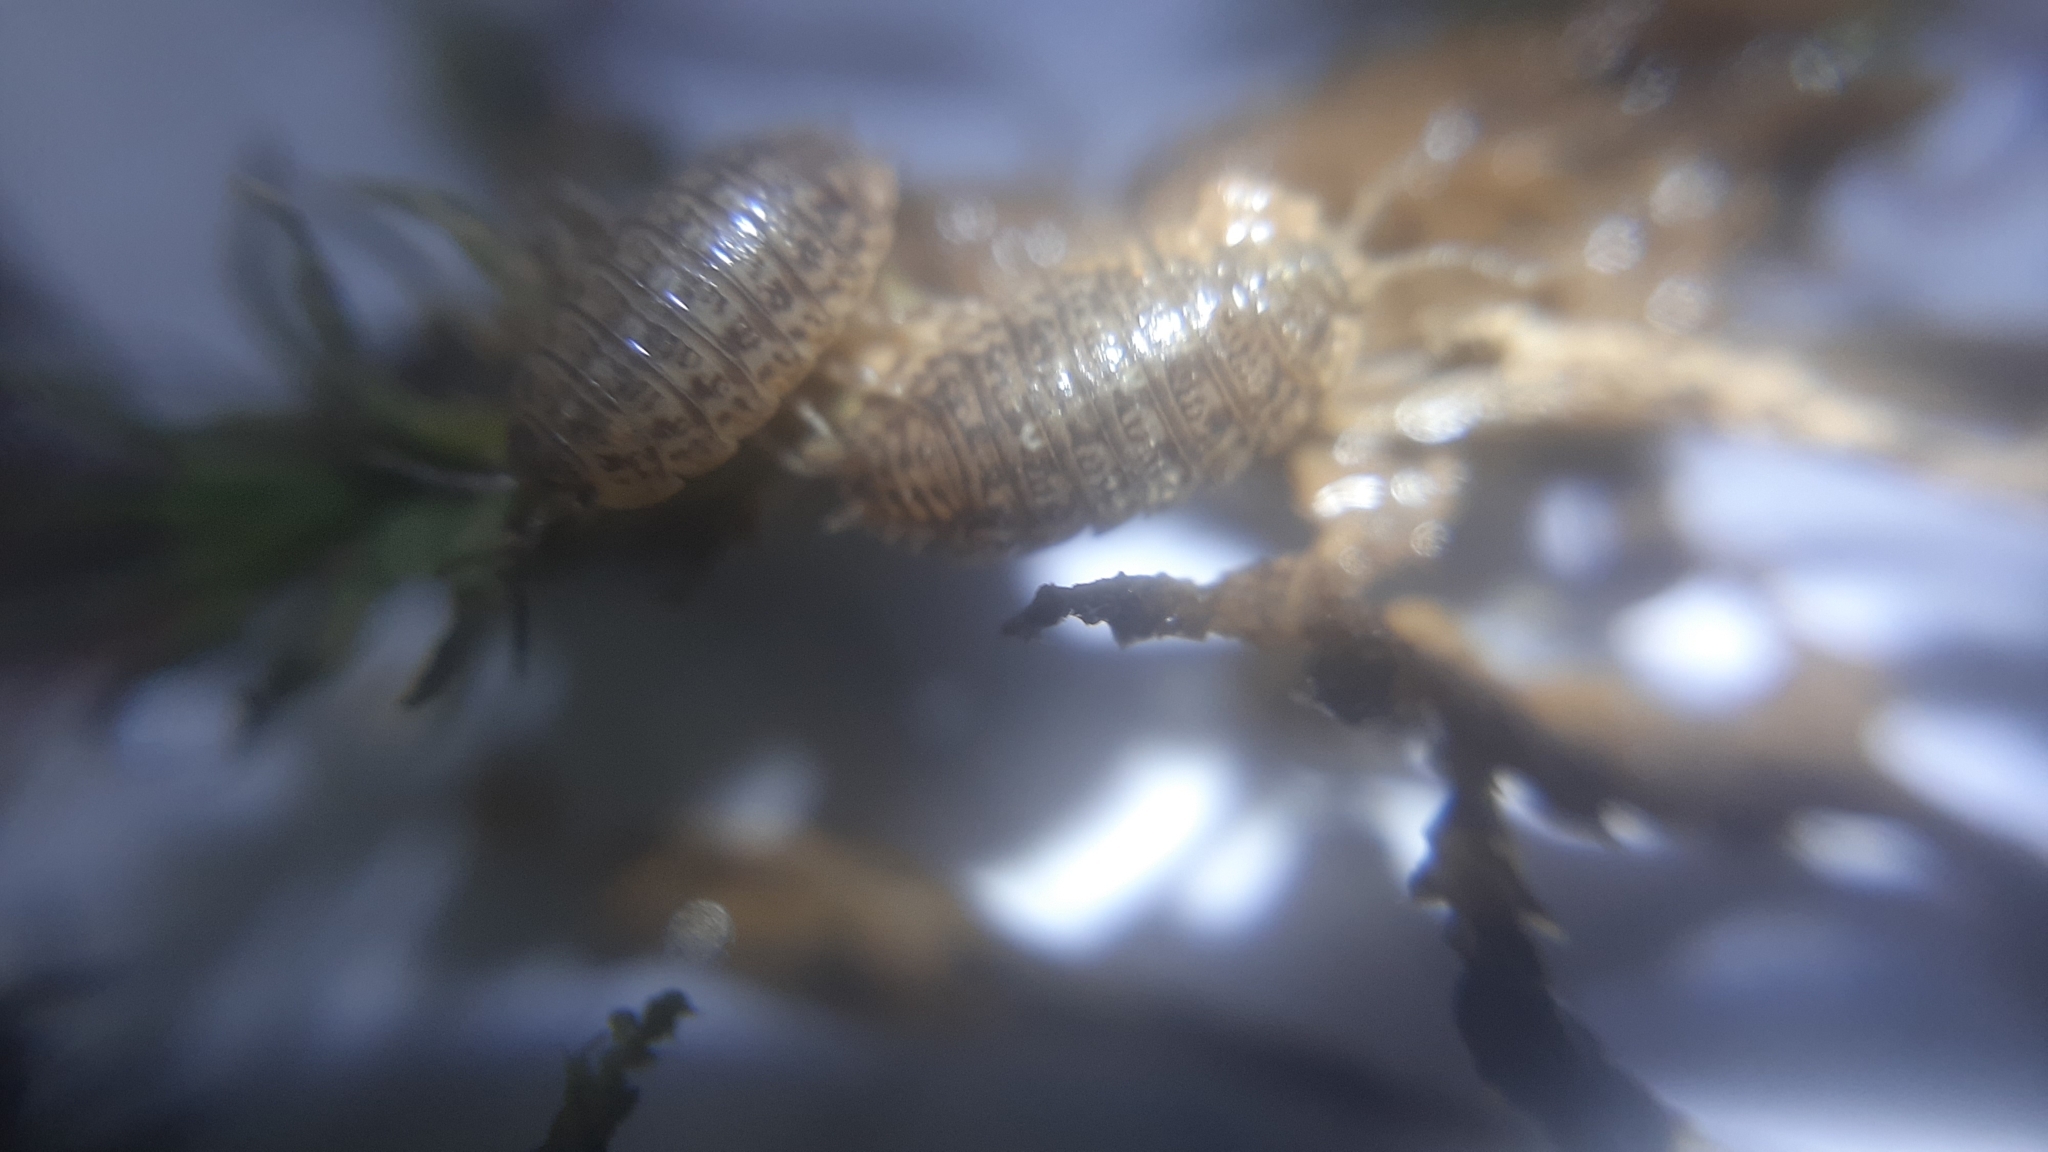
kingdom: Animalia
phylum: Arthropoda
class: Malacostraca
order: Isopoda
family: Trachelipodidae
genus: Trachelipus
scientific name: Trachelipus razzautii
